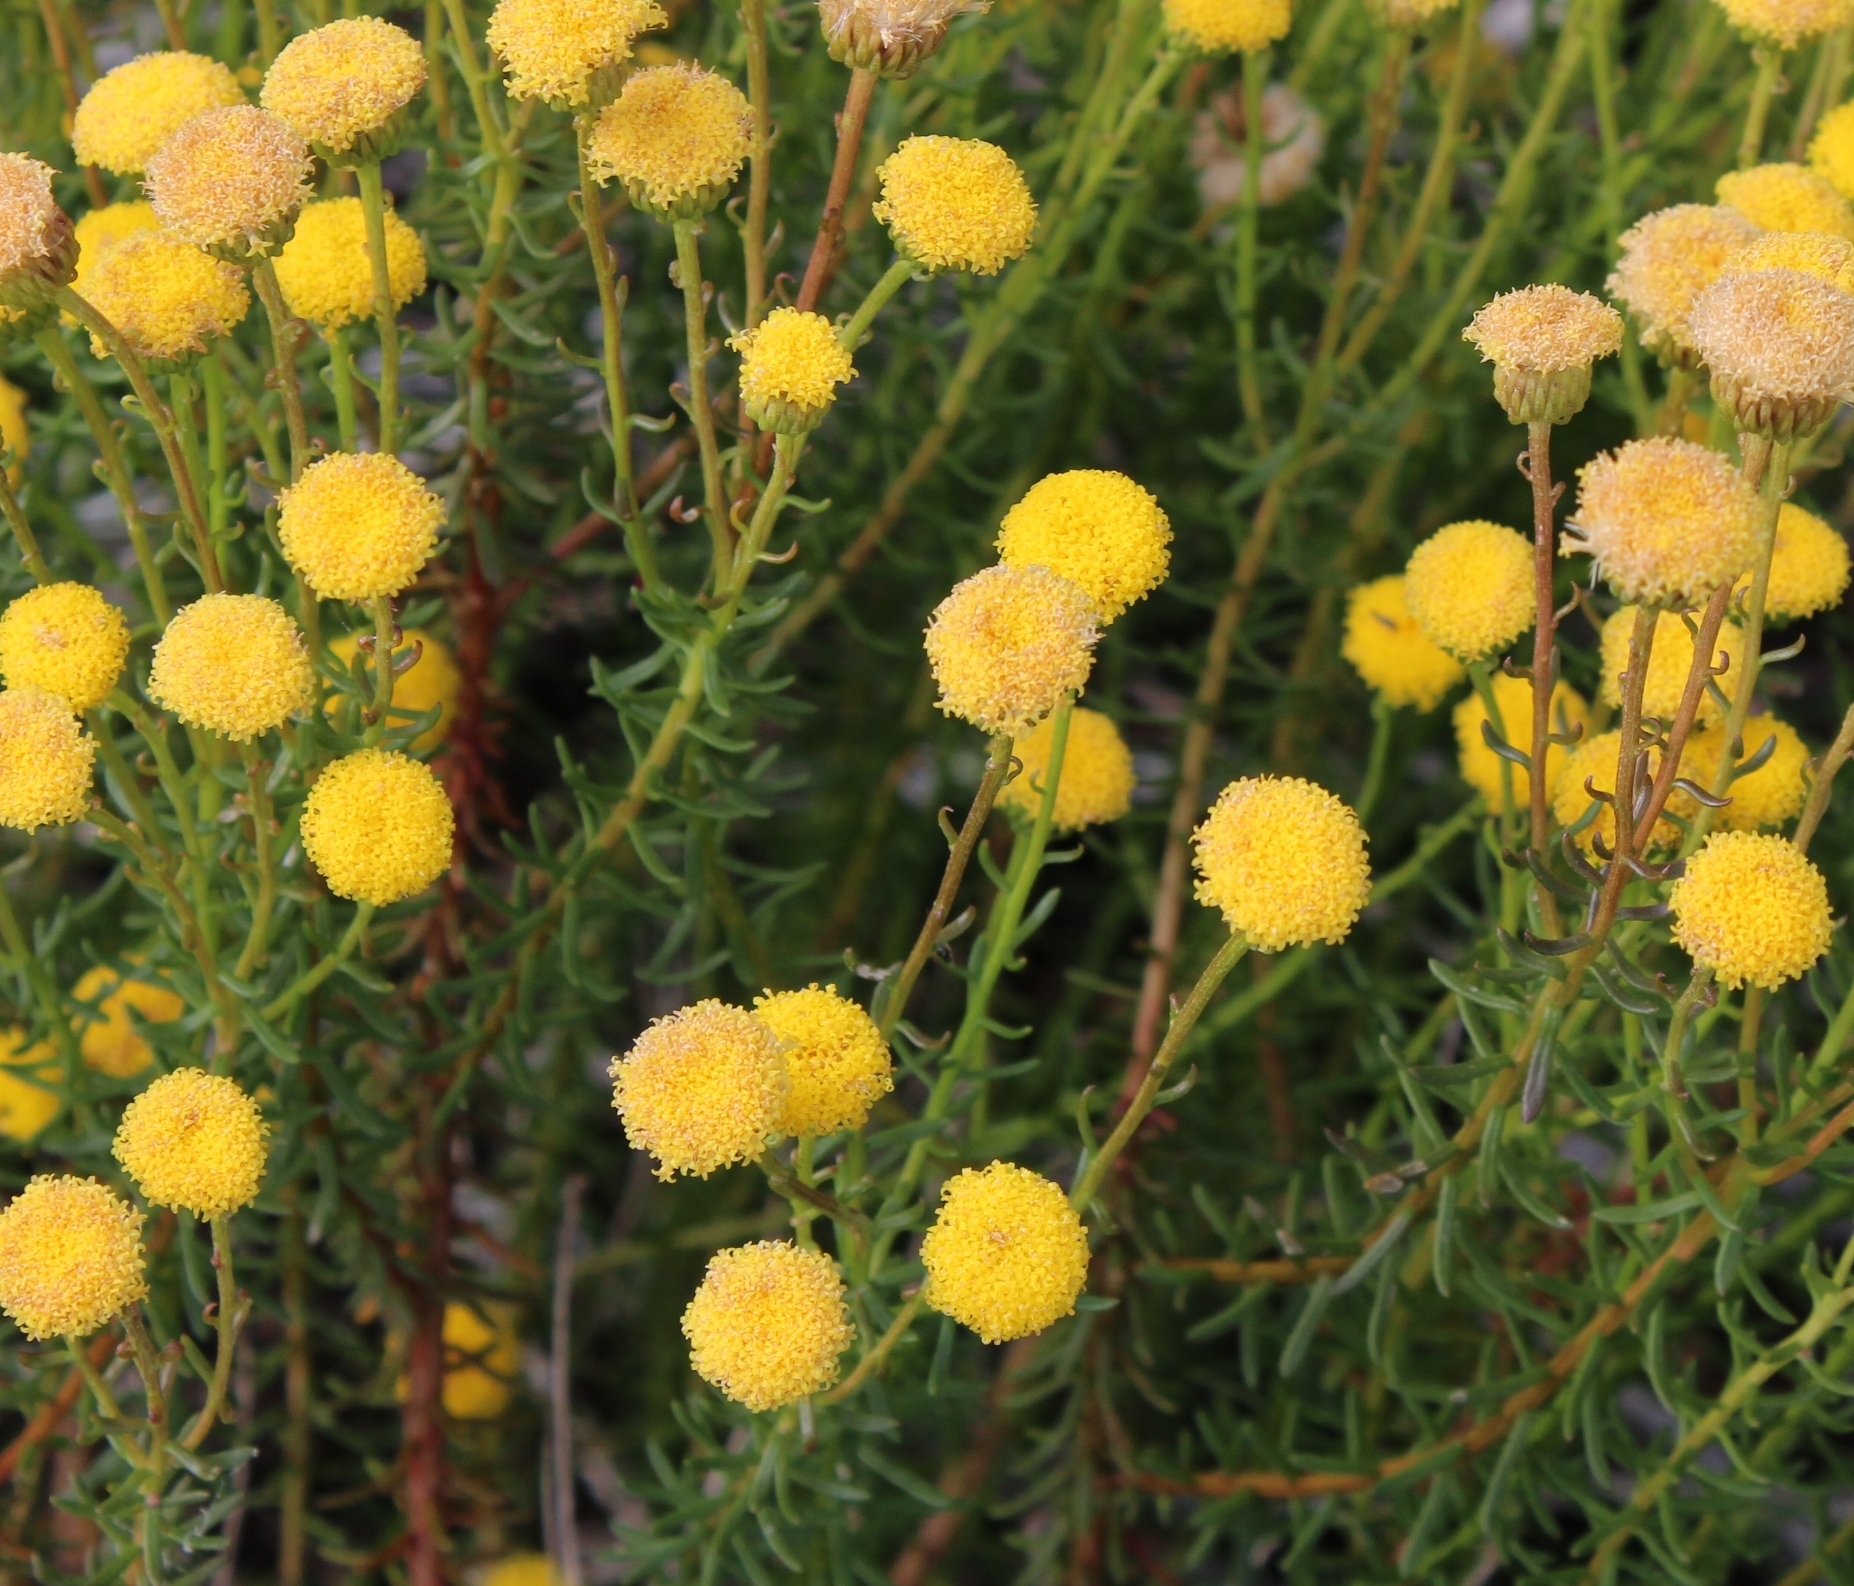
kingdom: Plantae
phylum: Tracheophyta
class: Magnoliopsida
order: Asterales
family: Asteraceae
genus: Chrysocoma
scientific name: Chrysocoma cernua
